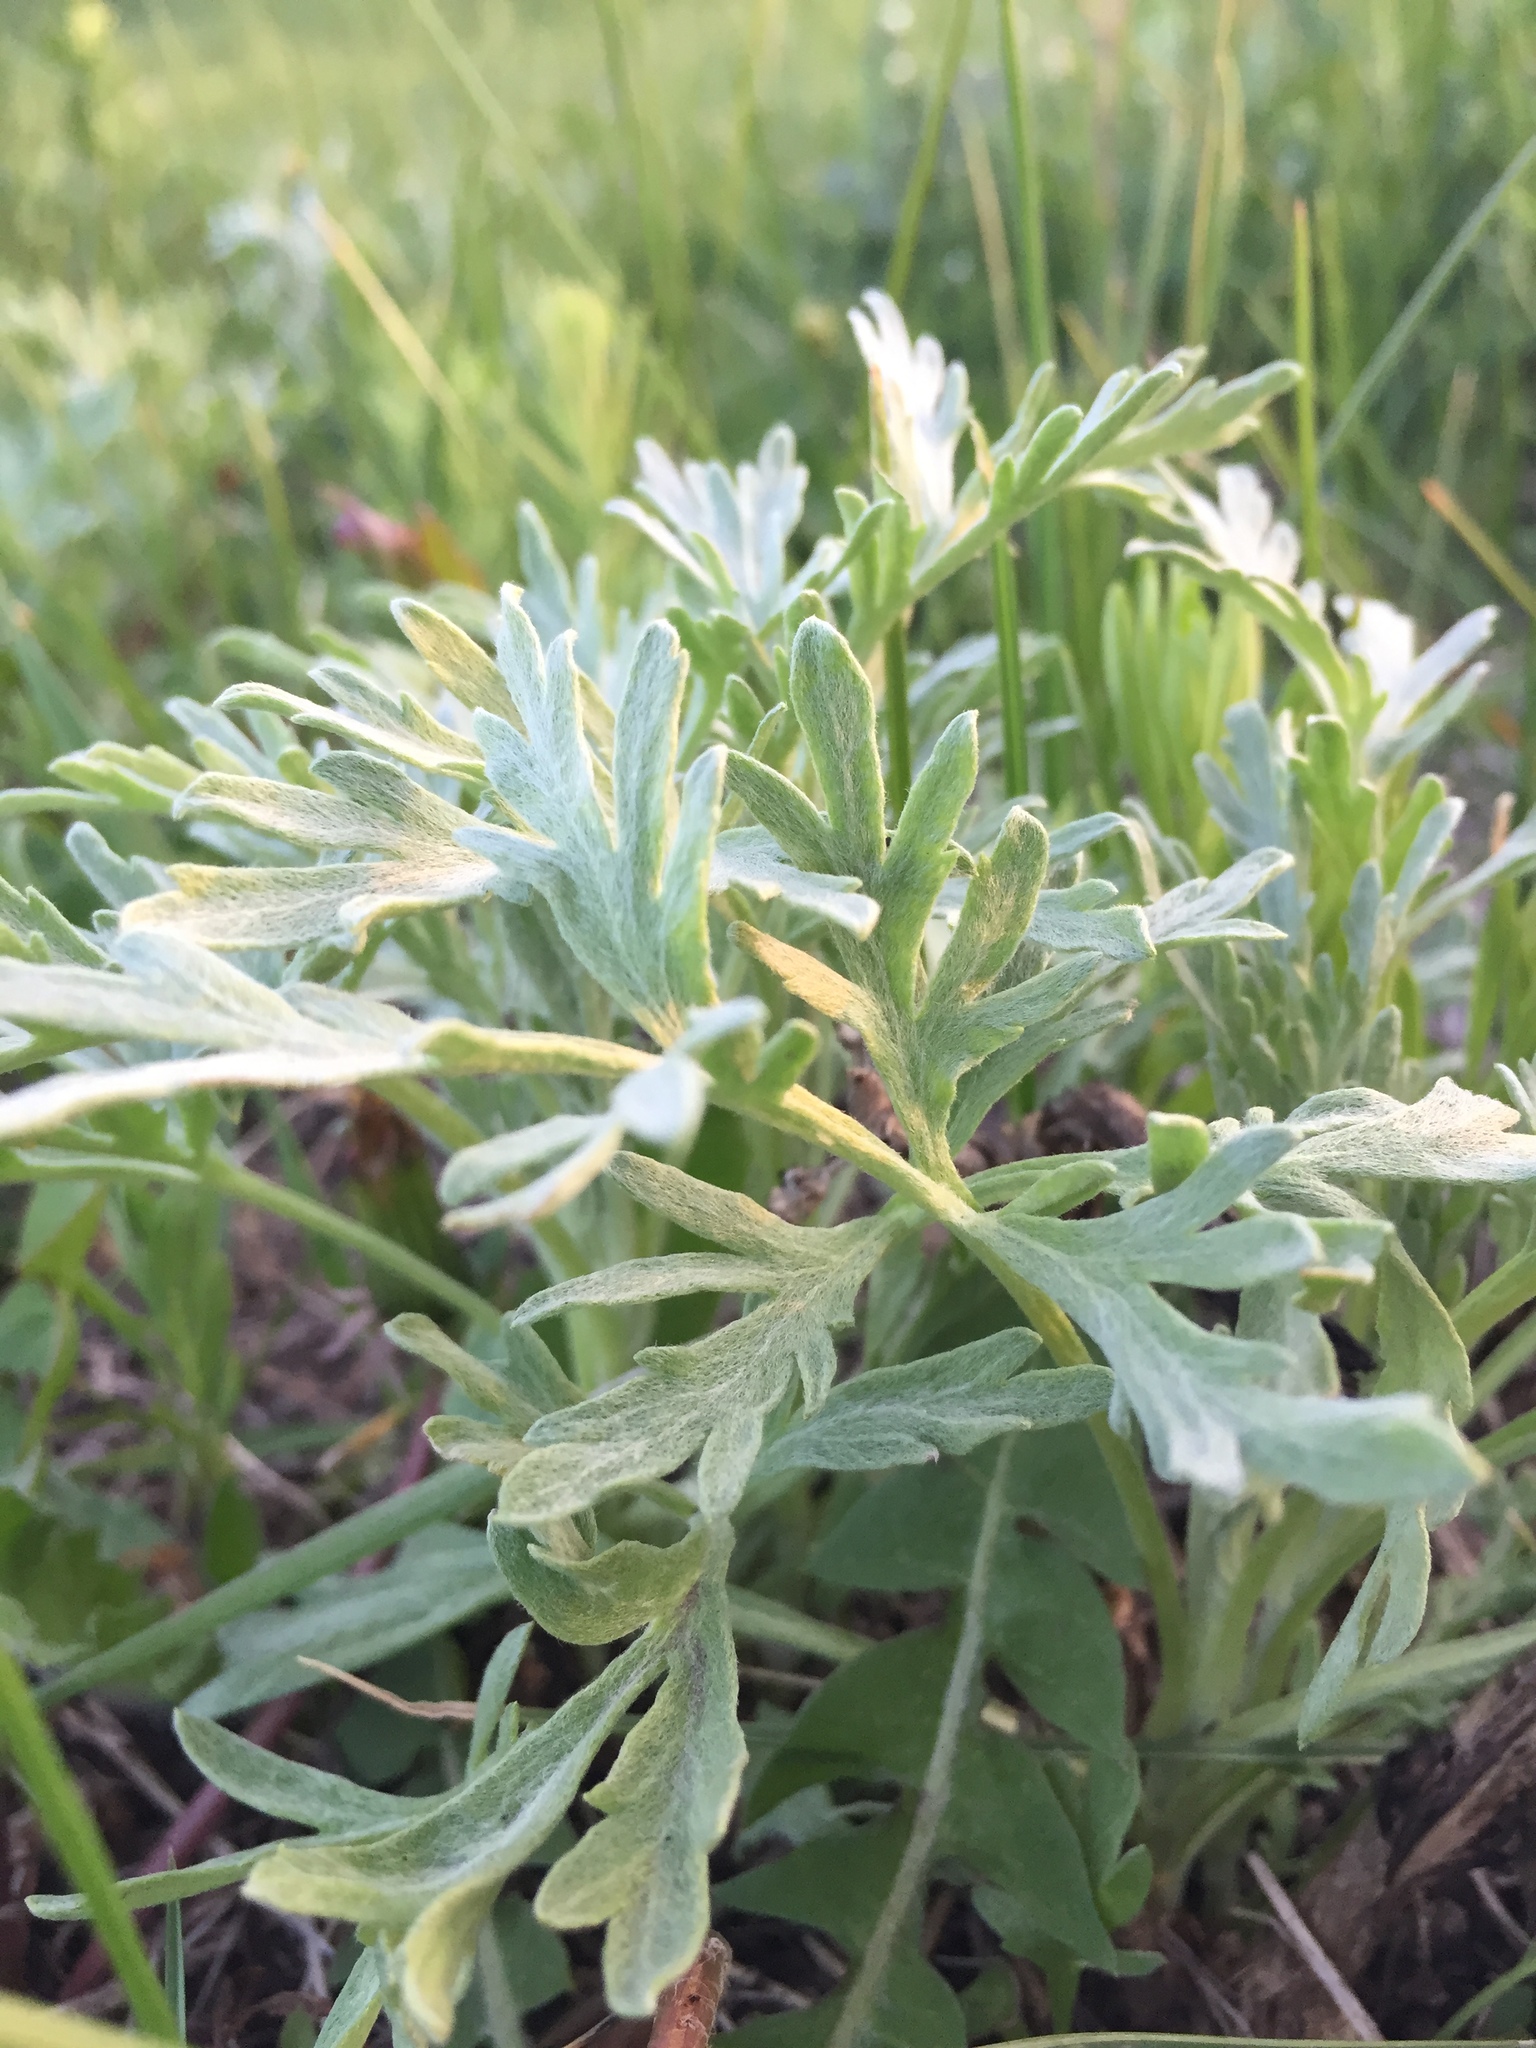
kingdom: Plantae
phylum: Tracheophyta
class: Magnoliopsida
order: Asterales
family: Asteraceae
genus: Artemisia
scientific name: Artemisia absinthium
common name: Wormwood
